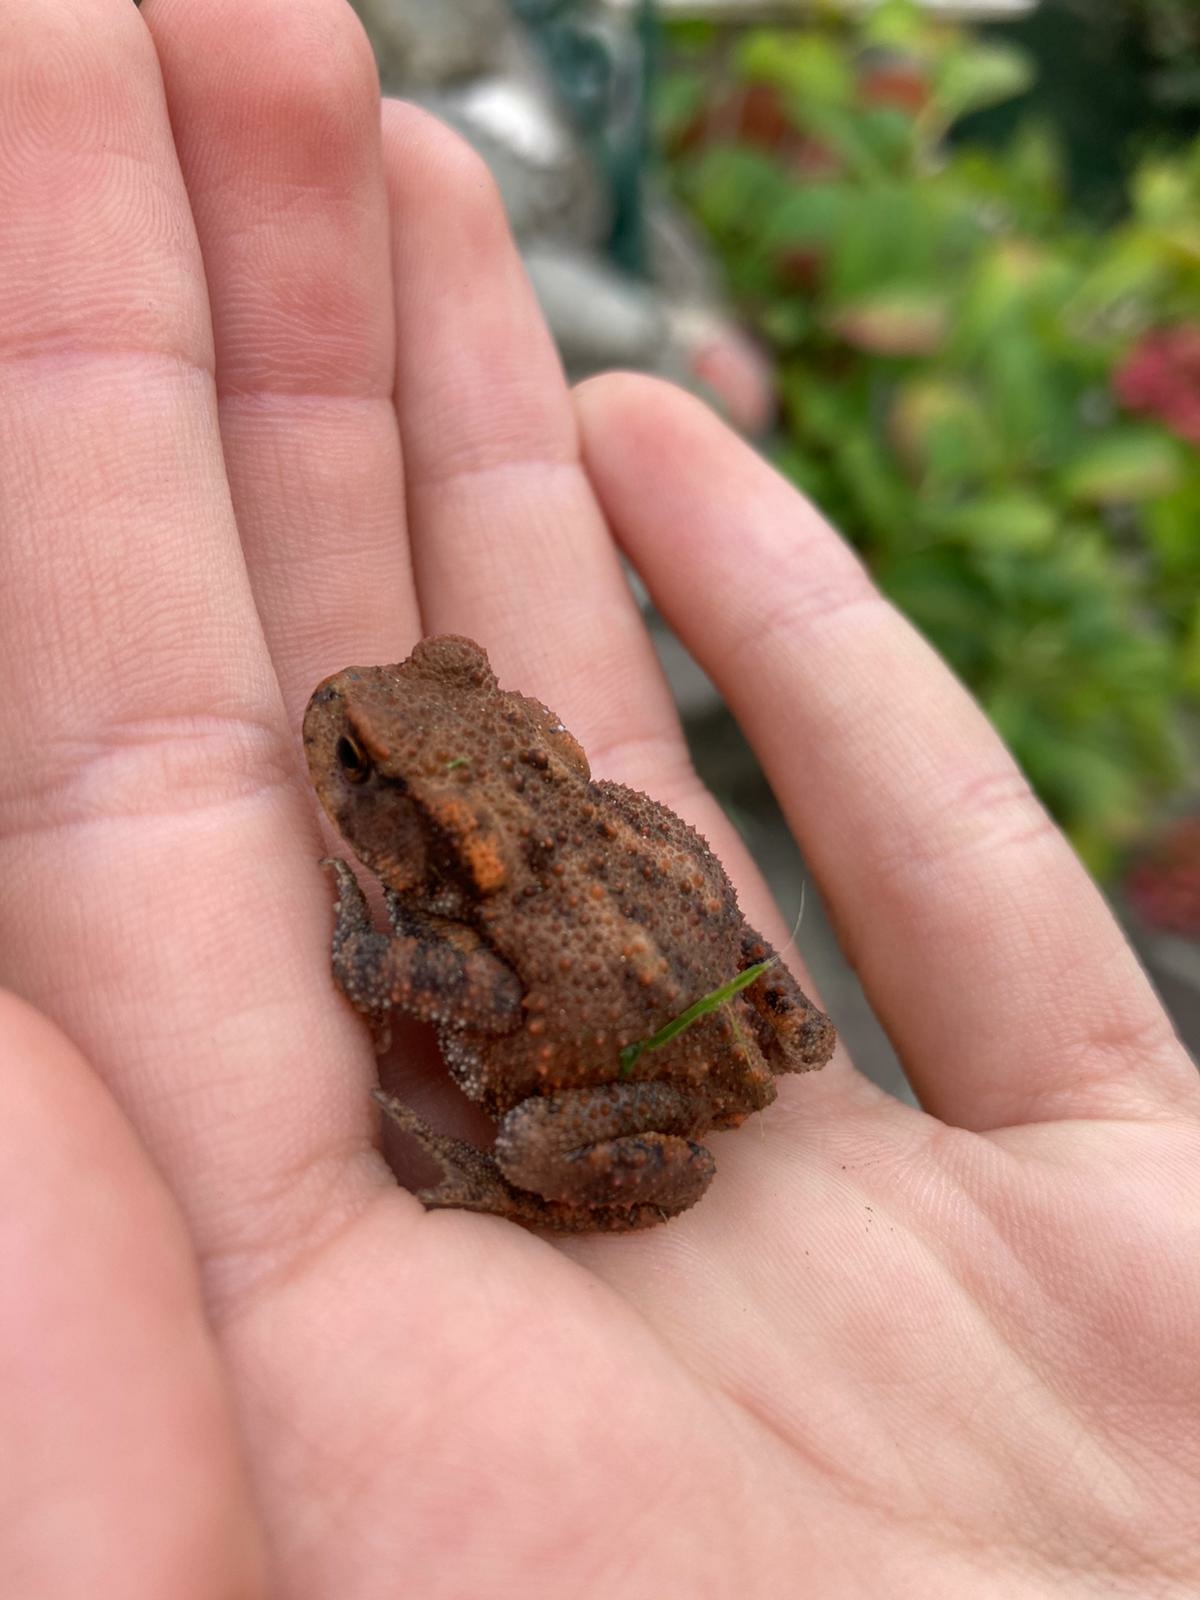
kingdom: Animalia
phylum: Chordata
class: Amphibia
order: Anura
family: Bufonidae
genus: Bufo
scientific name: Bufo bufo
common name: Common toad
